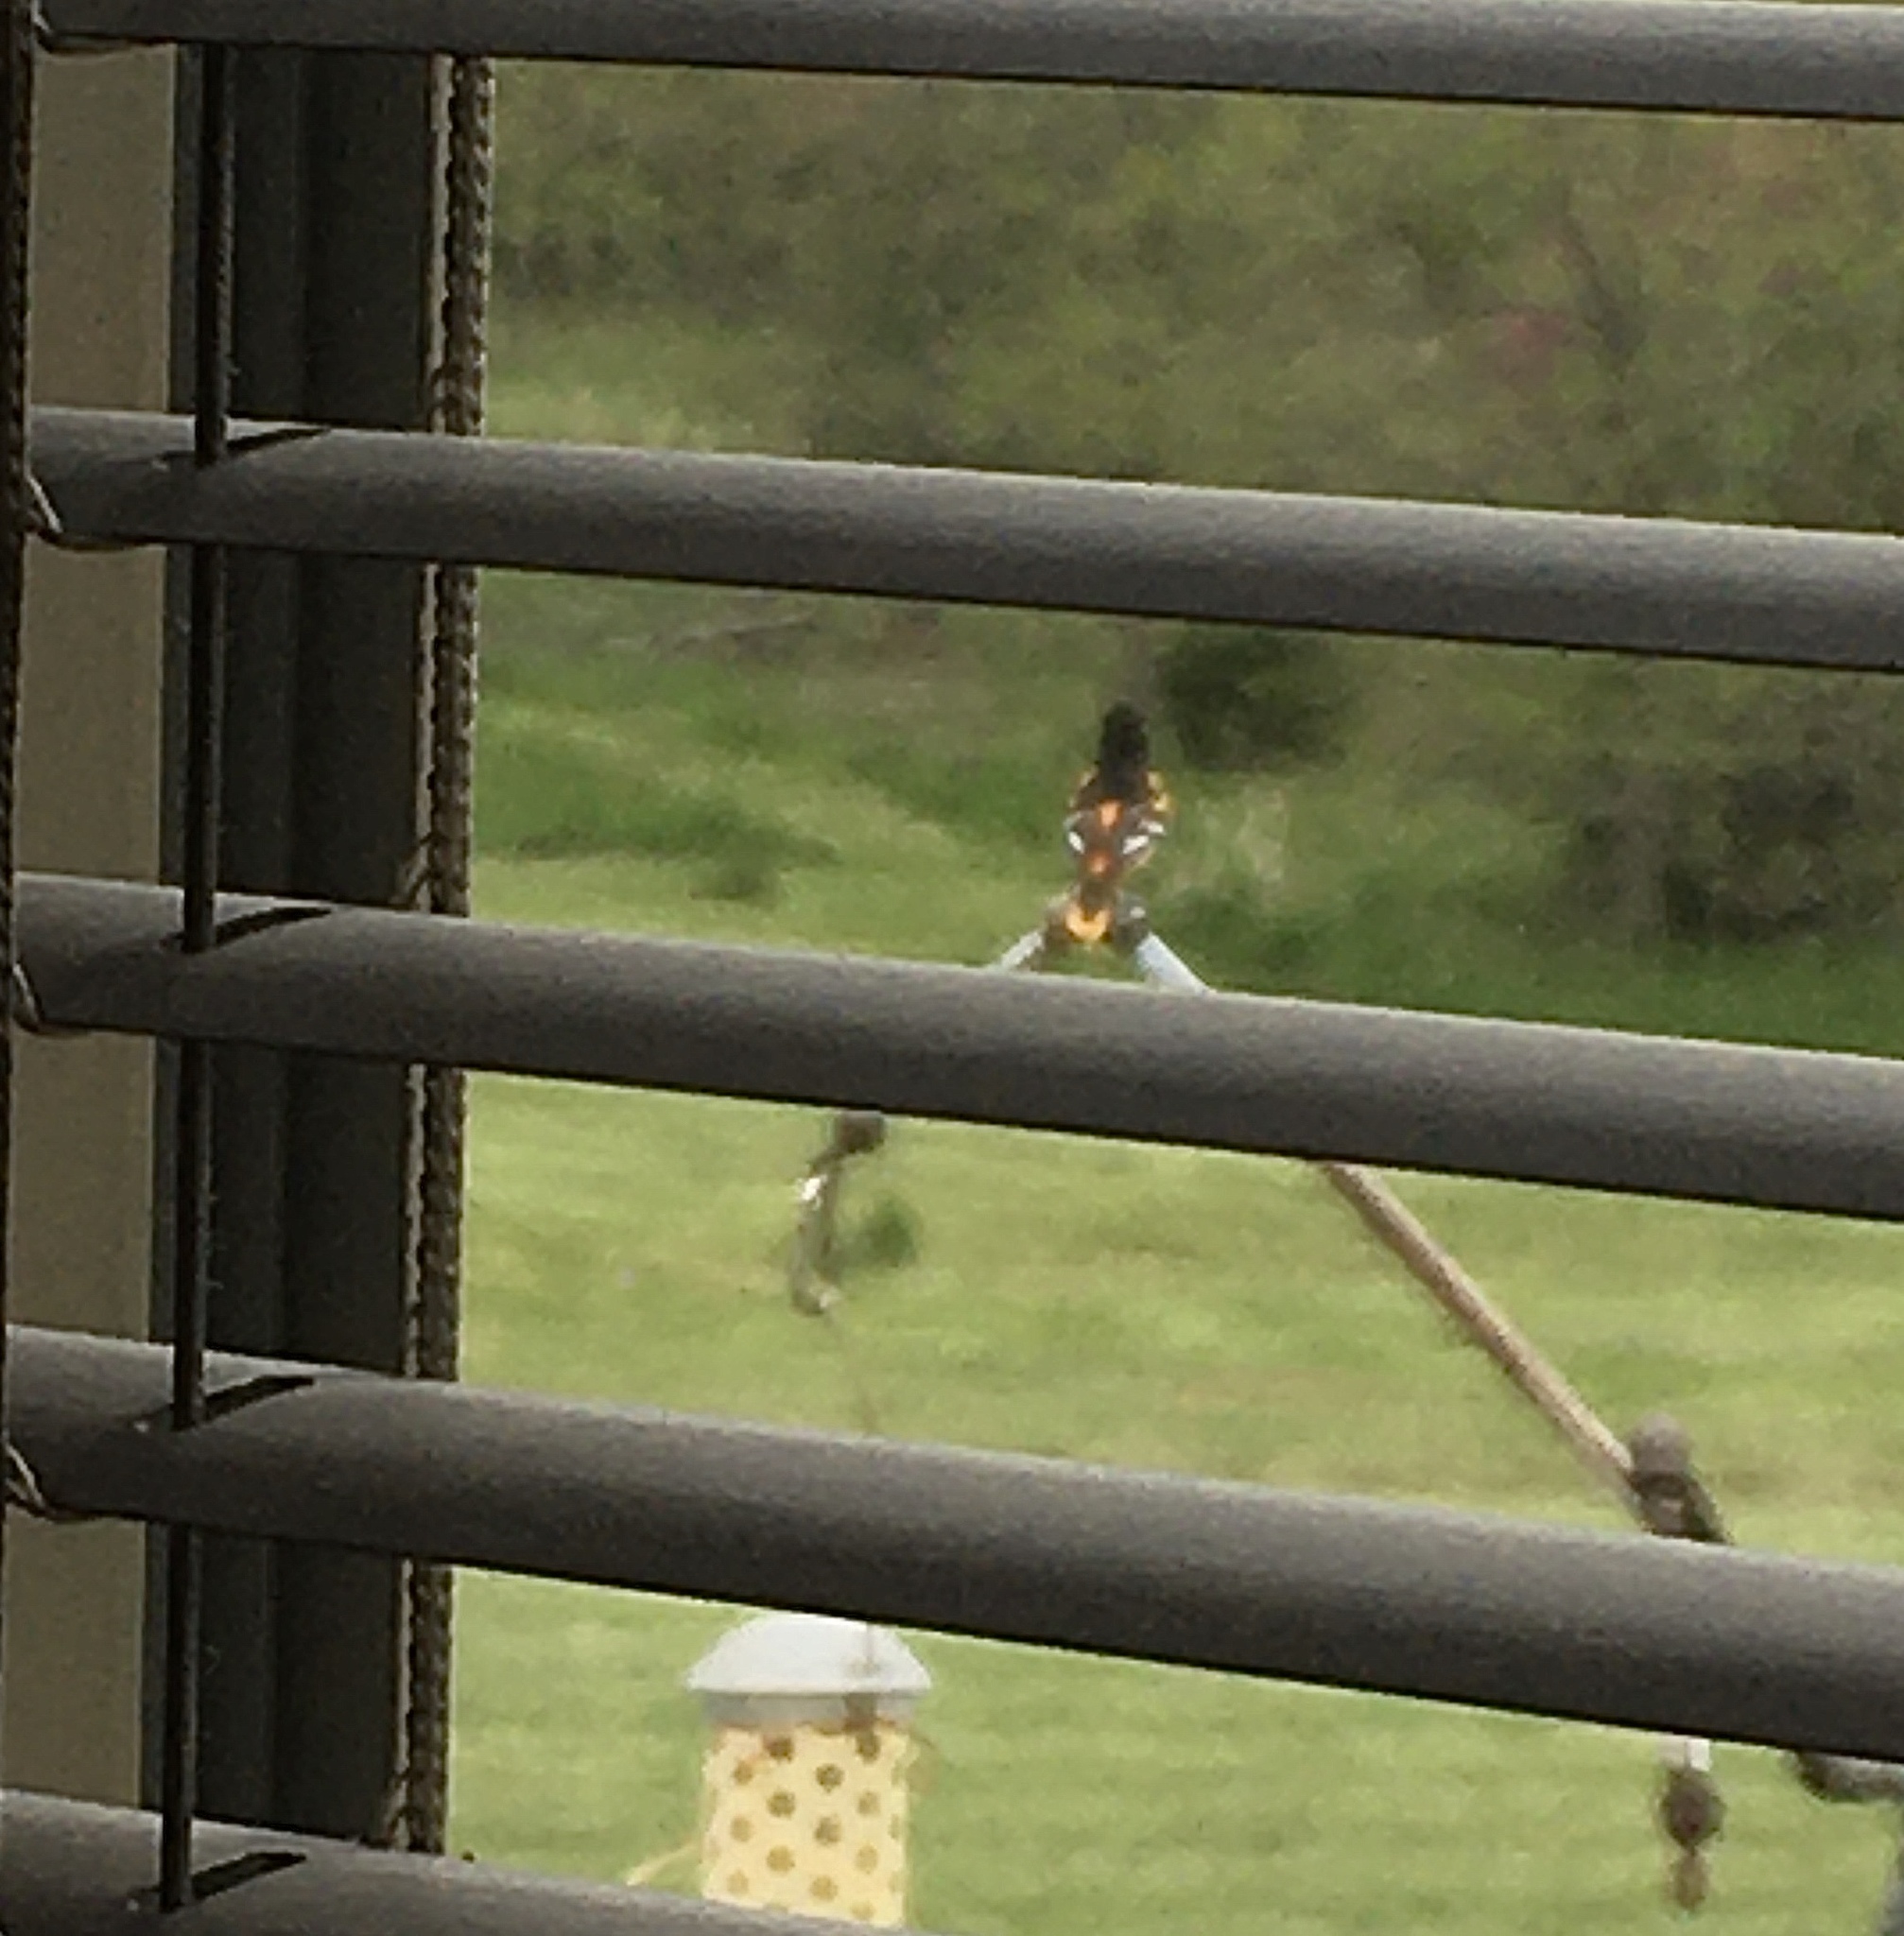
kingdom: Animalia
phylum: Chordata
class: Aves
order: Passeriformes
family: Icteridae
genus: Icterus
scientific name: Icterus galbula
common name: Baltimore oriole
